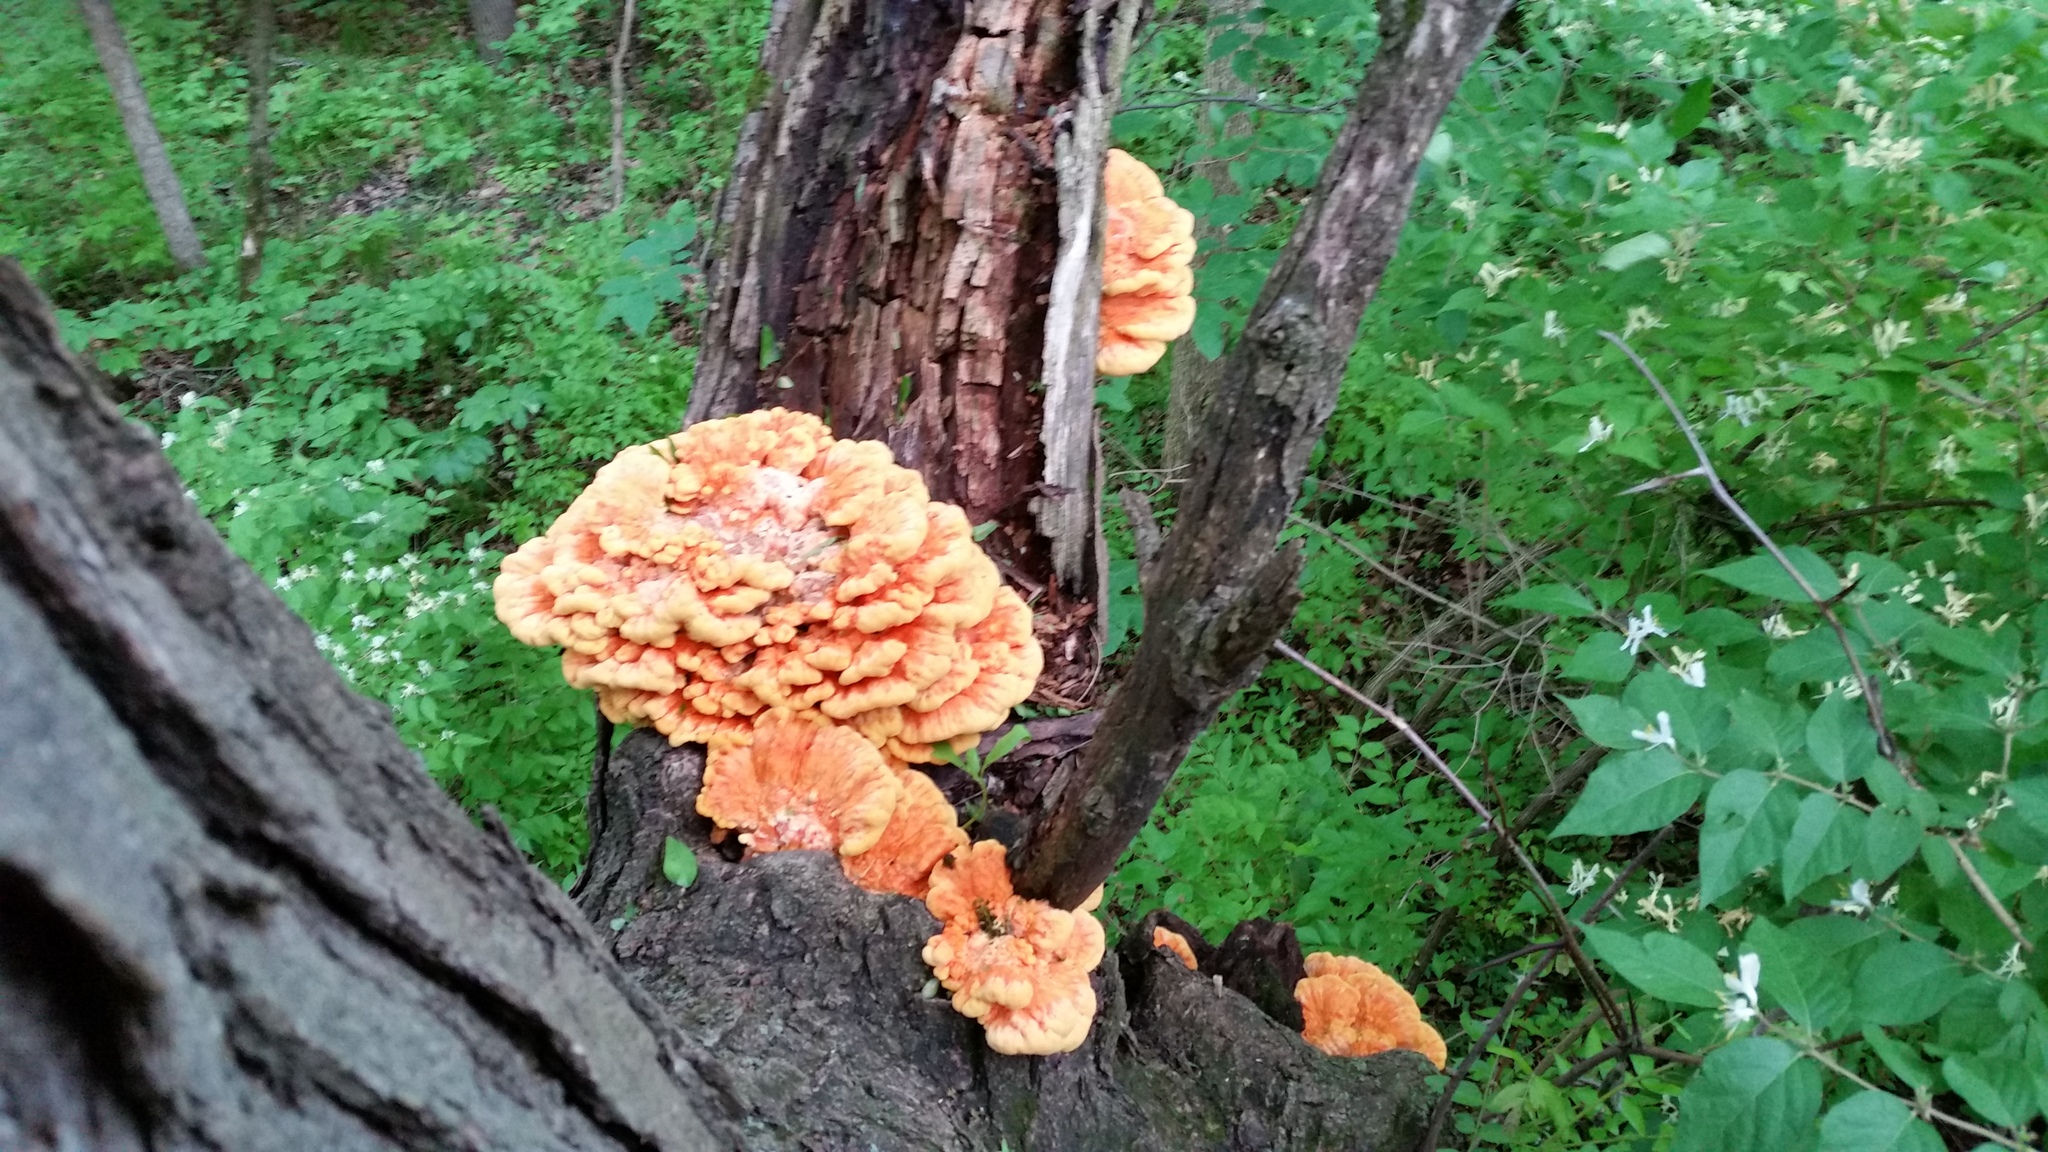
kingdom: Fungi
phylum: Basidiomycota
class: Agaricomycetes
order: Polyporales
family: Laetiporaceae
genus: Laetiporus
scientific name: Laetiporus sulphureus
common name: Chicken of the woods
